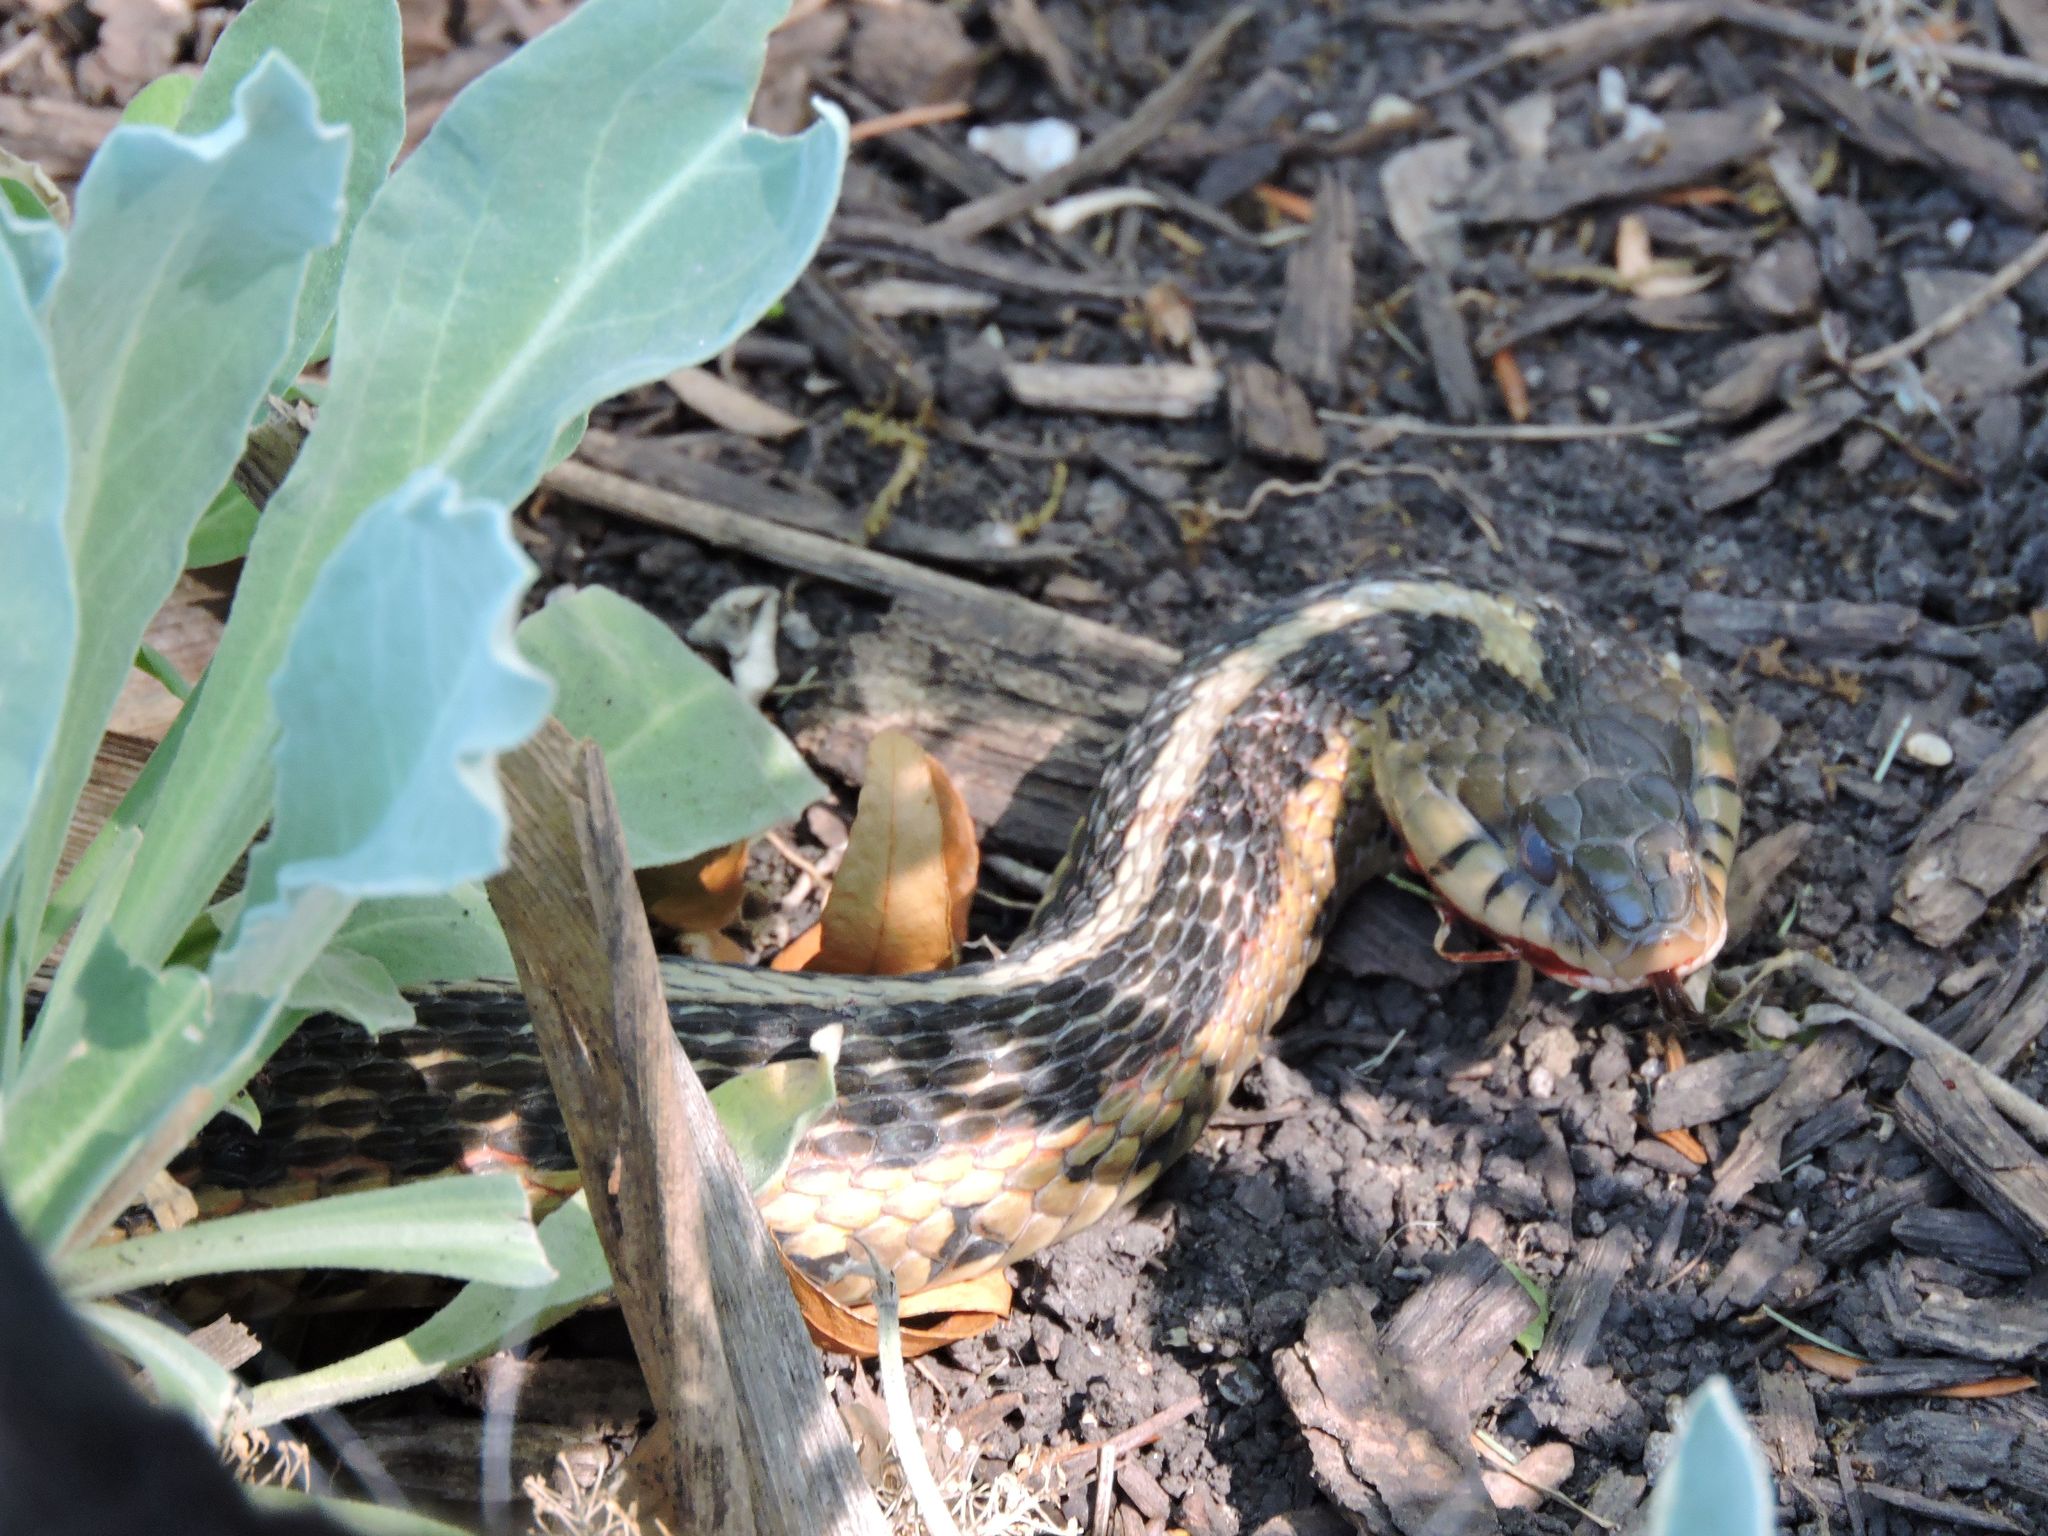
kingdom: Animalia
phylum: Chordata
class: Squamata
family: Colubridae
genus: Thamnophis
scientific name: Thamnophis sirtalis
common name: Common garter snake
